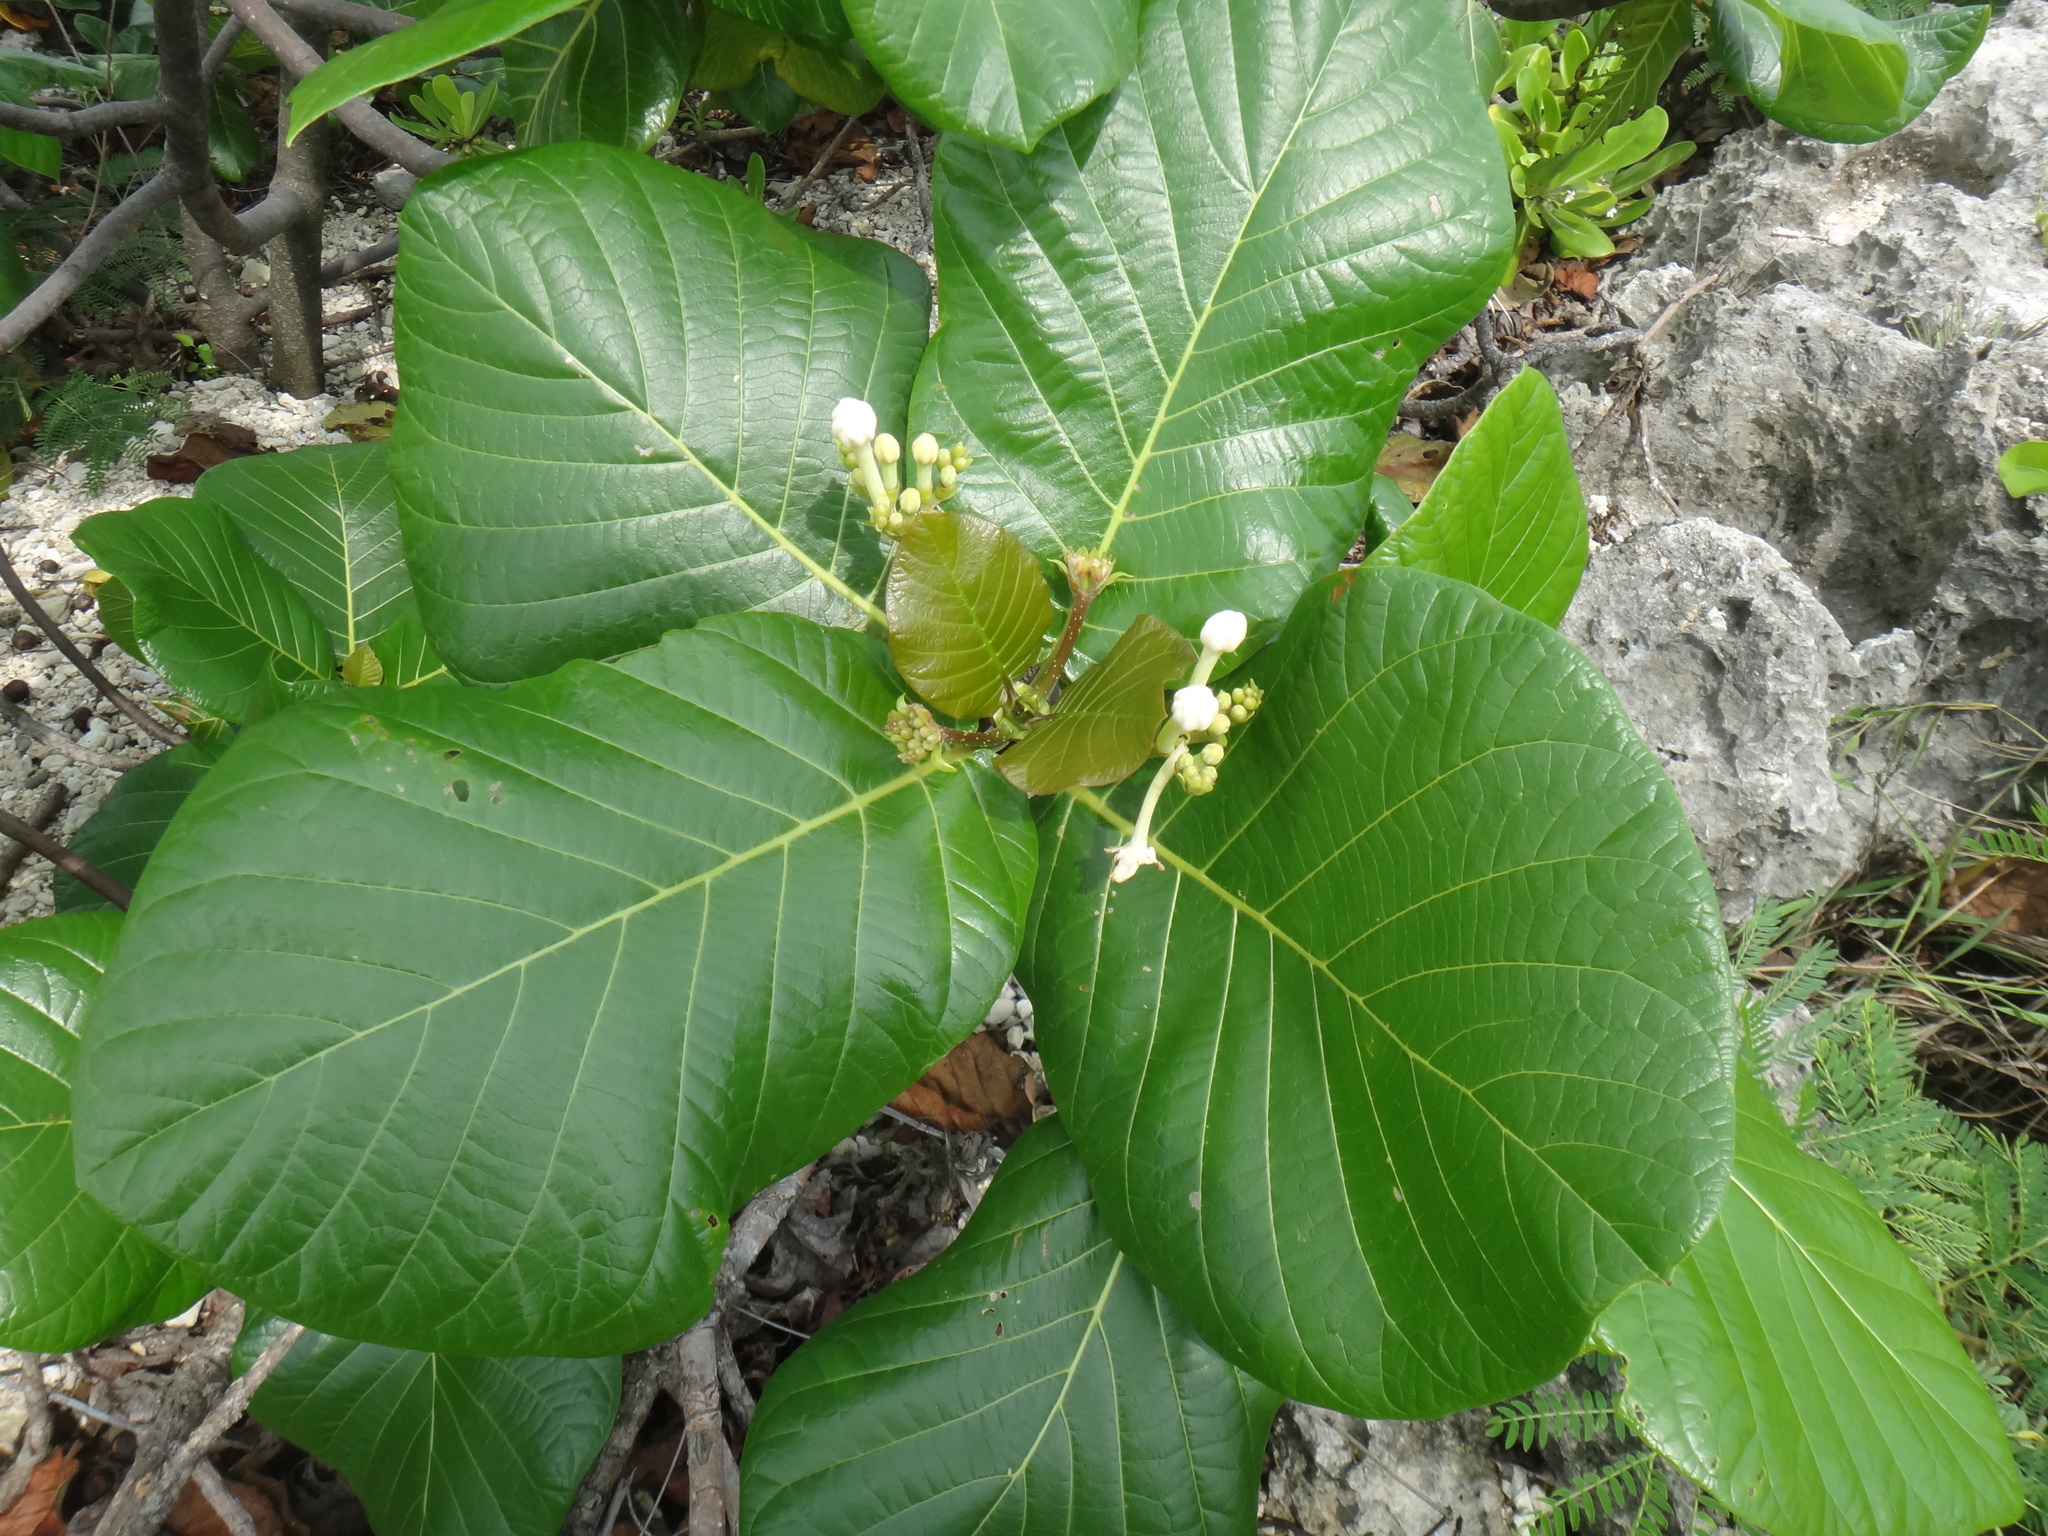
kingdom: Plantae
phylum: Tracheophyta
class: Magnoliopsida
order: Gentianales
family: Rubiaceae
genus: Guettarda
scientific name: Guettarda speciosa
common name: Sea randa
